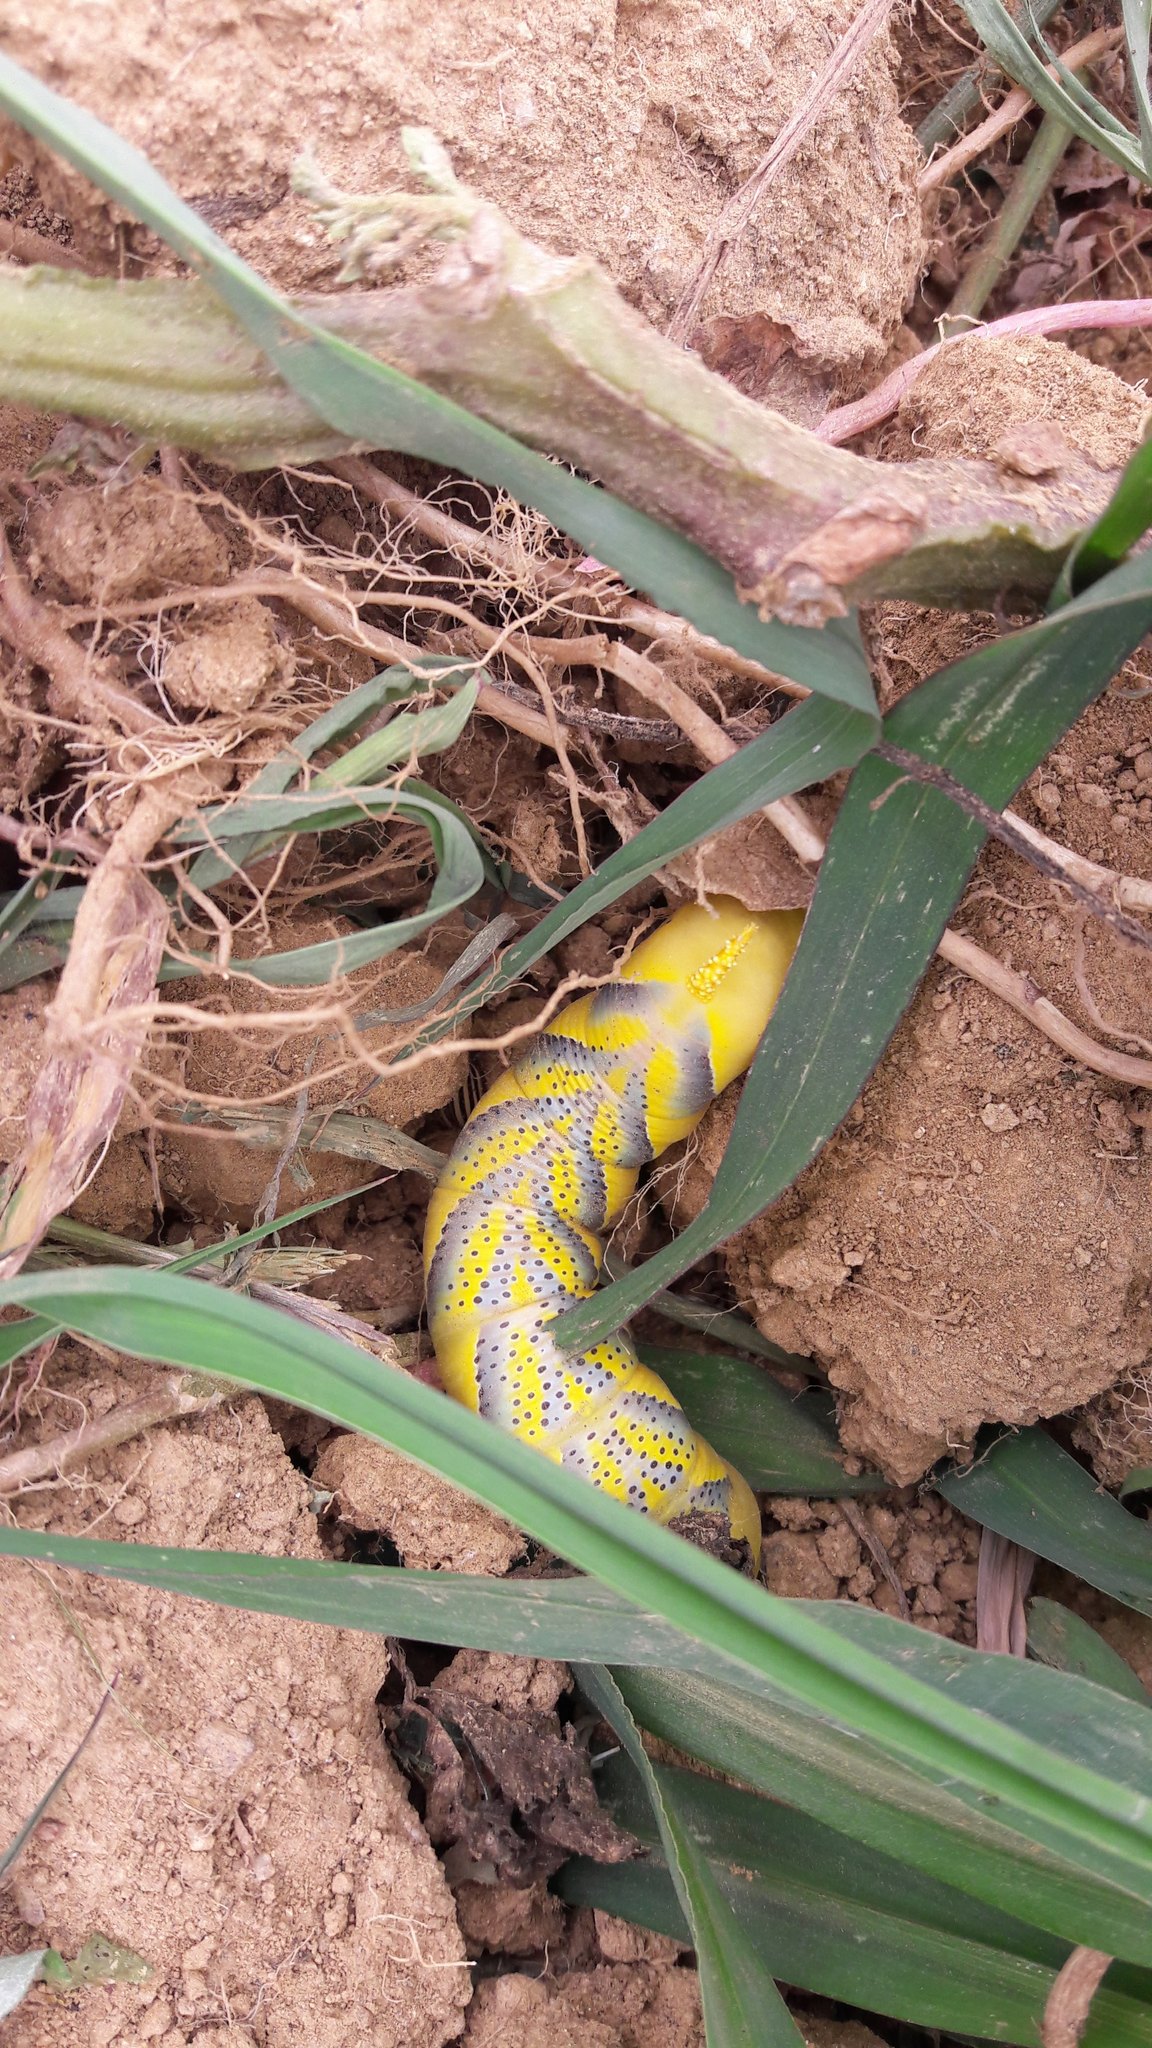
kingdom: Animalia
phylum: Arthropoda
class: Insecta
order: Lepidoptera
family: Sphingidae
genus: Acherontia
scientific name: Acherontia atropos
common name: Death's-head hawk moth
